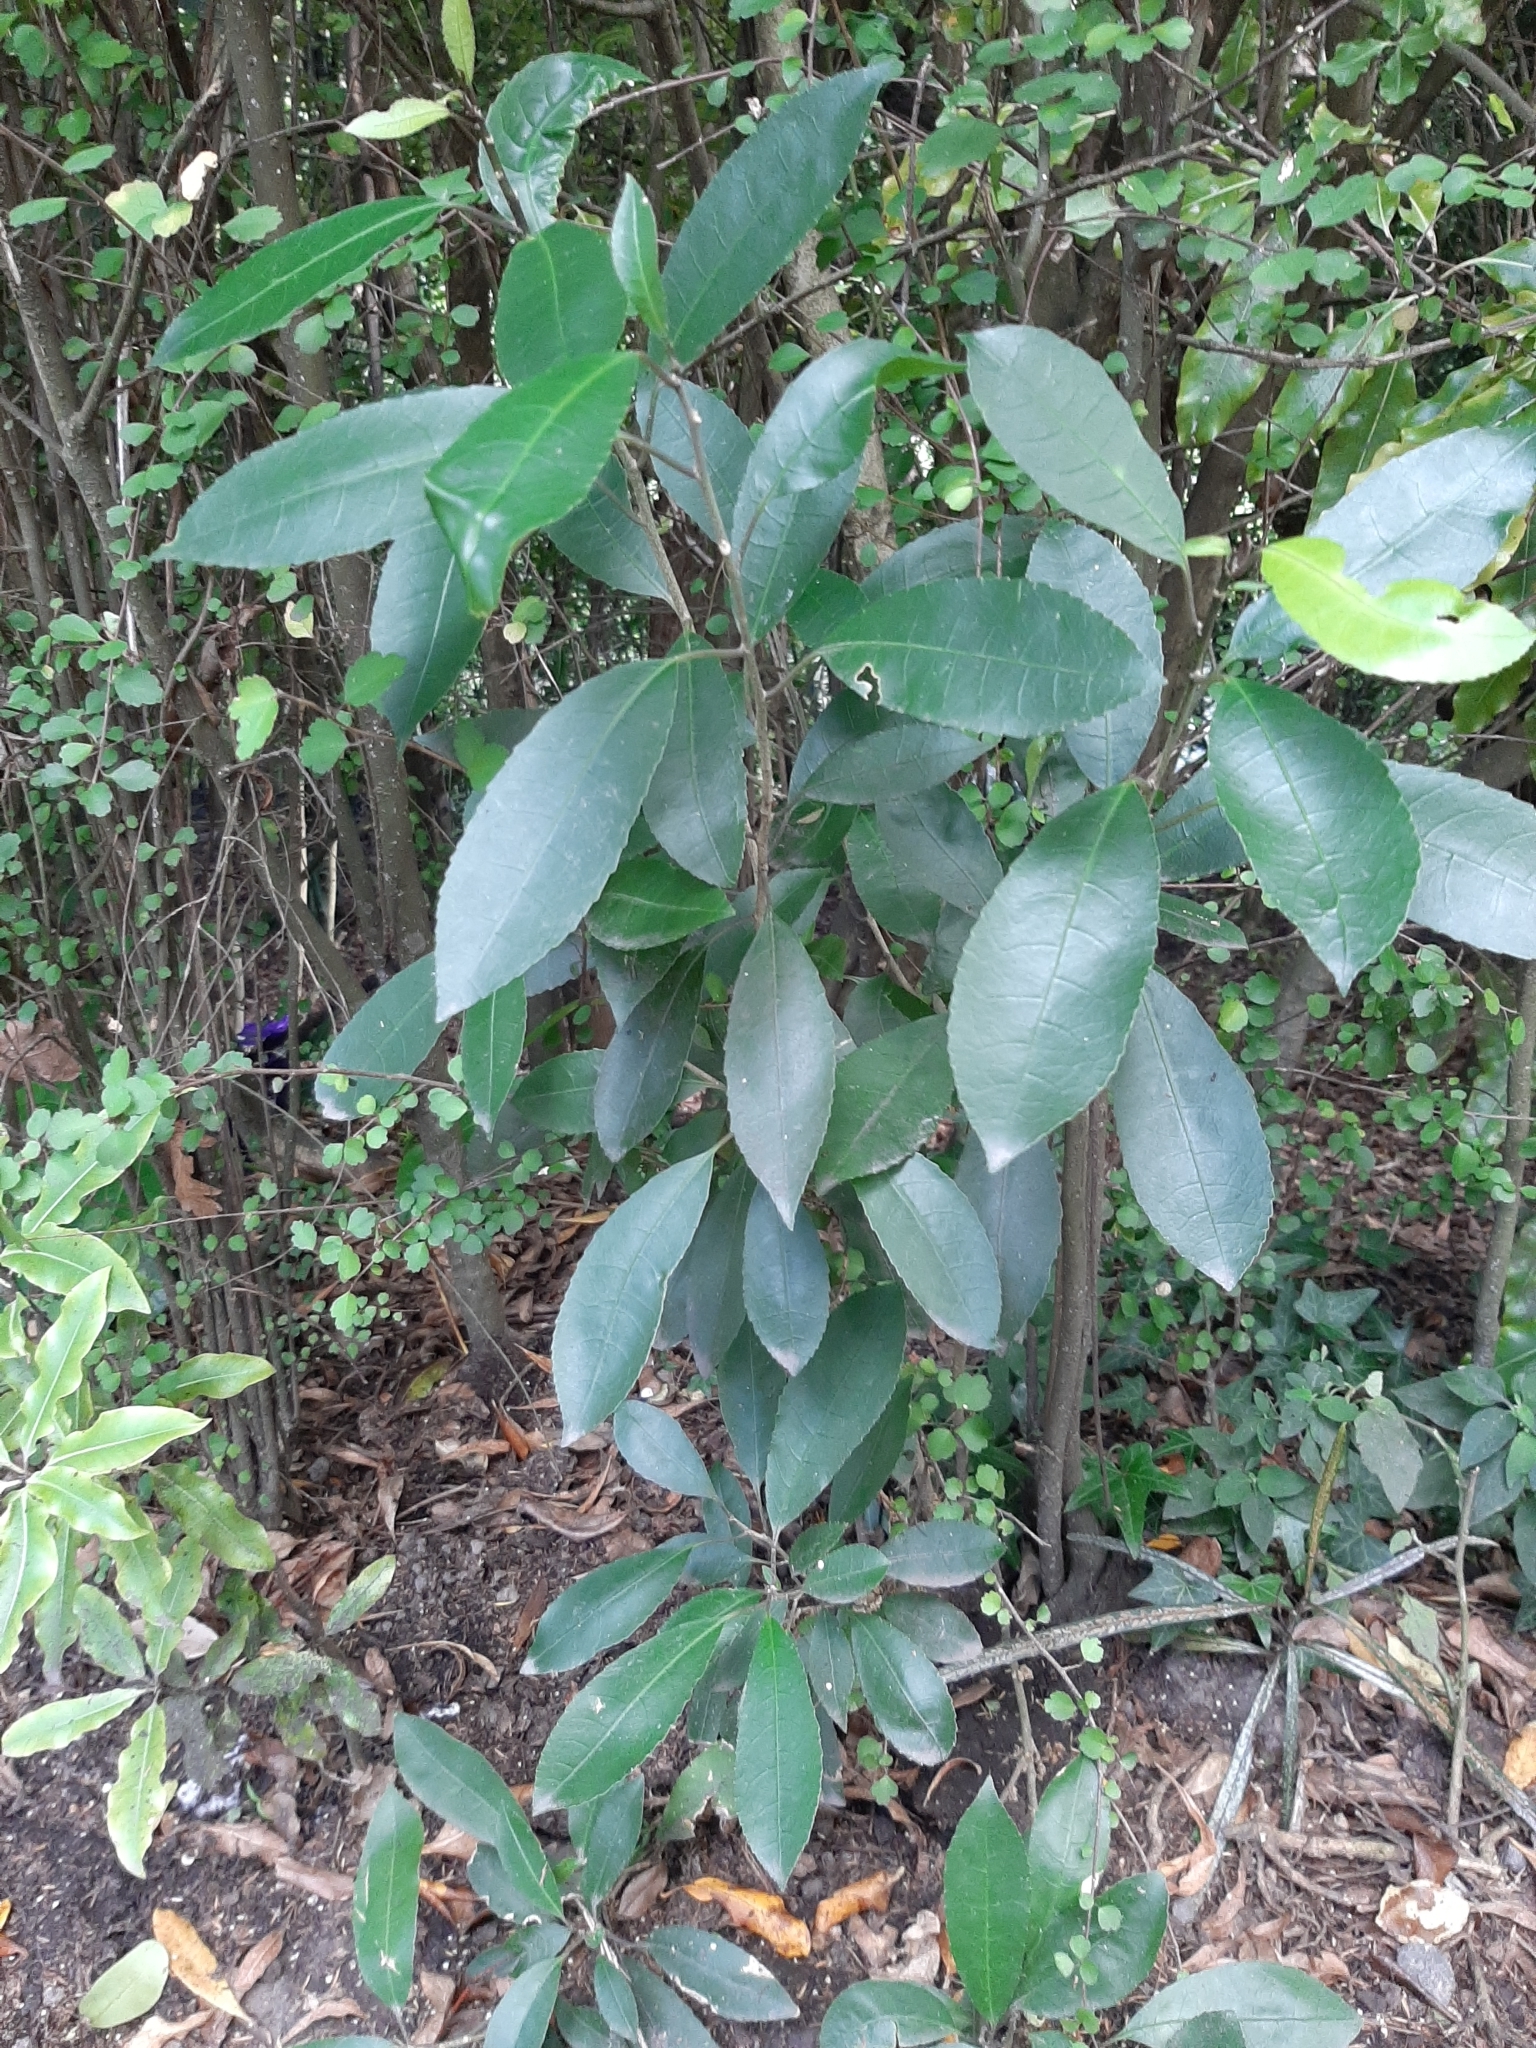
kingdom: Plantae
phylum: Tracheophyta
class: Magnoliopsida
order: Malpighiales
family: Violaceae
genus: Melicytus
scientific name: Melicytus ramiflorus
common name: Mahoe
